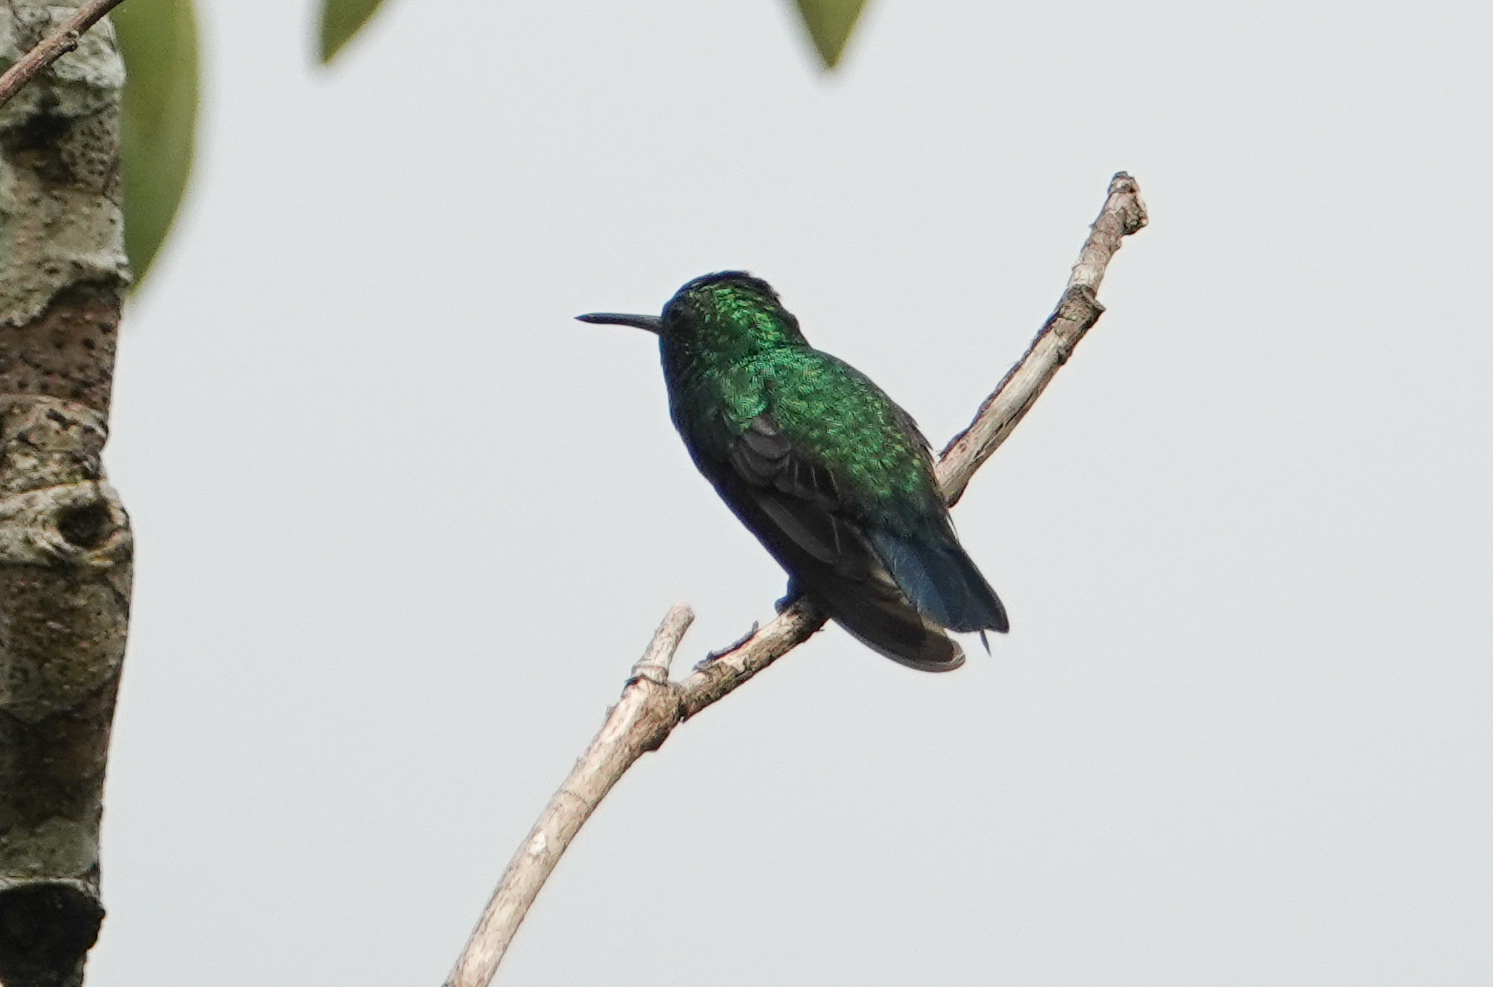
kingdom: Animalia
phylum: Chordata
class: Aves
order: Apodiformes
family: Trochilidae
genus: Chlorestes
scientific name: Chlorestes notata
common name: Blue-chinned sapphire
